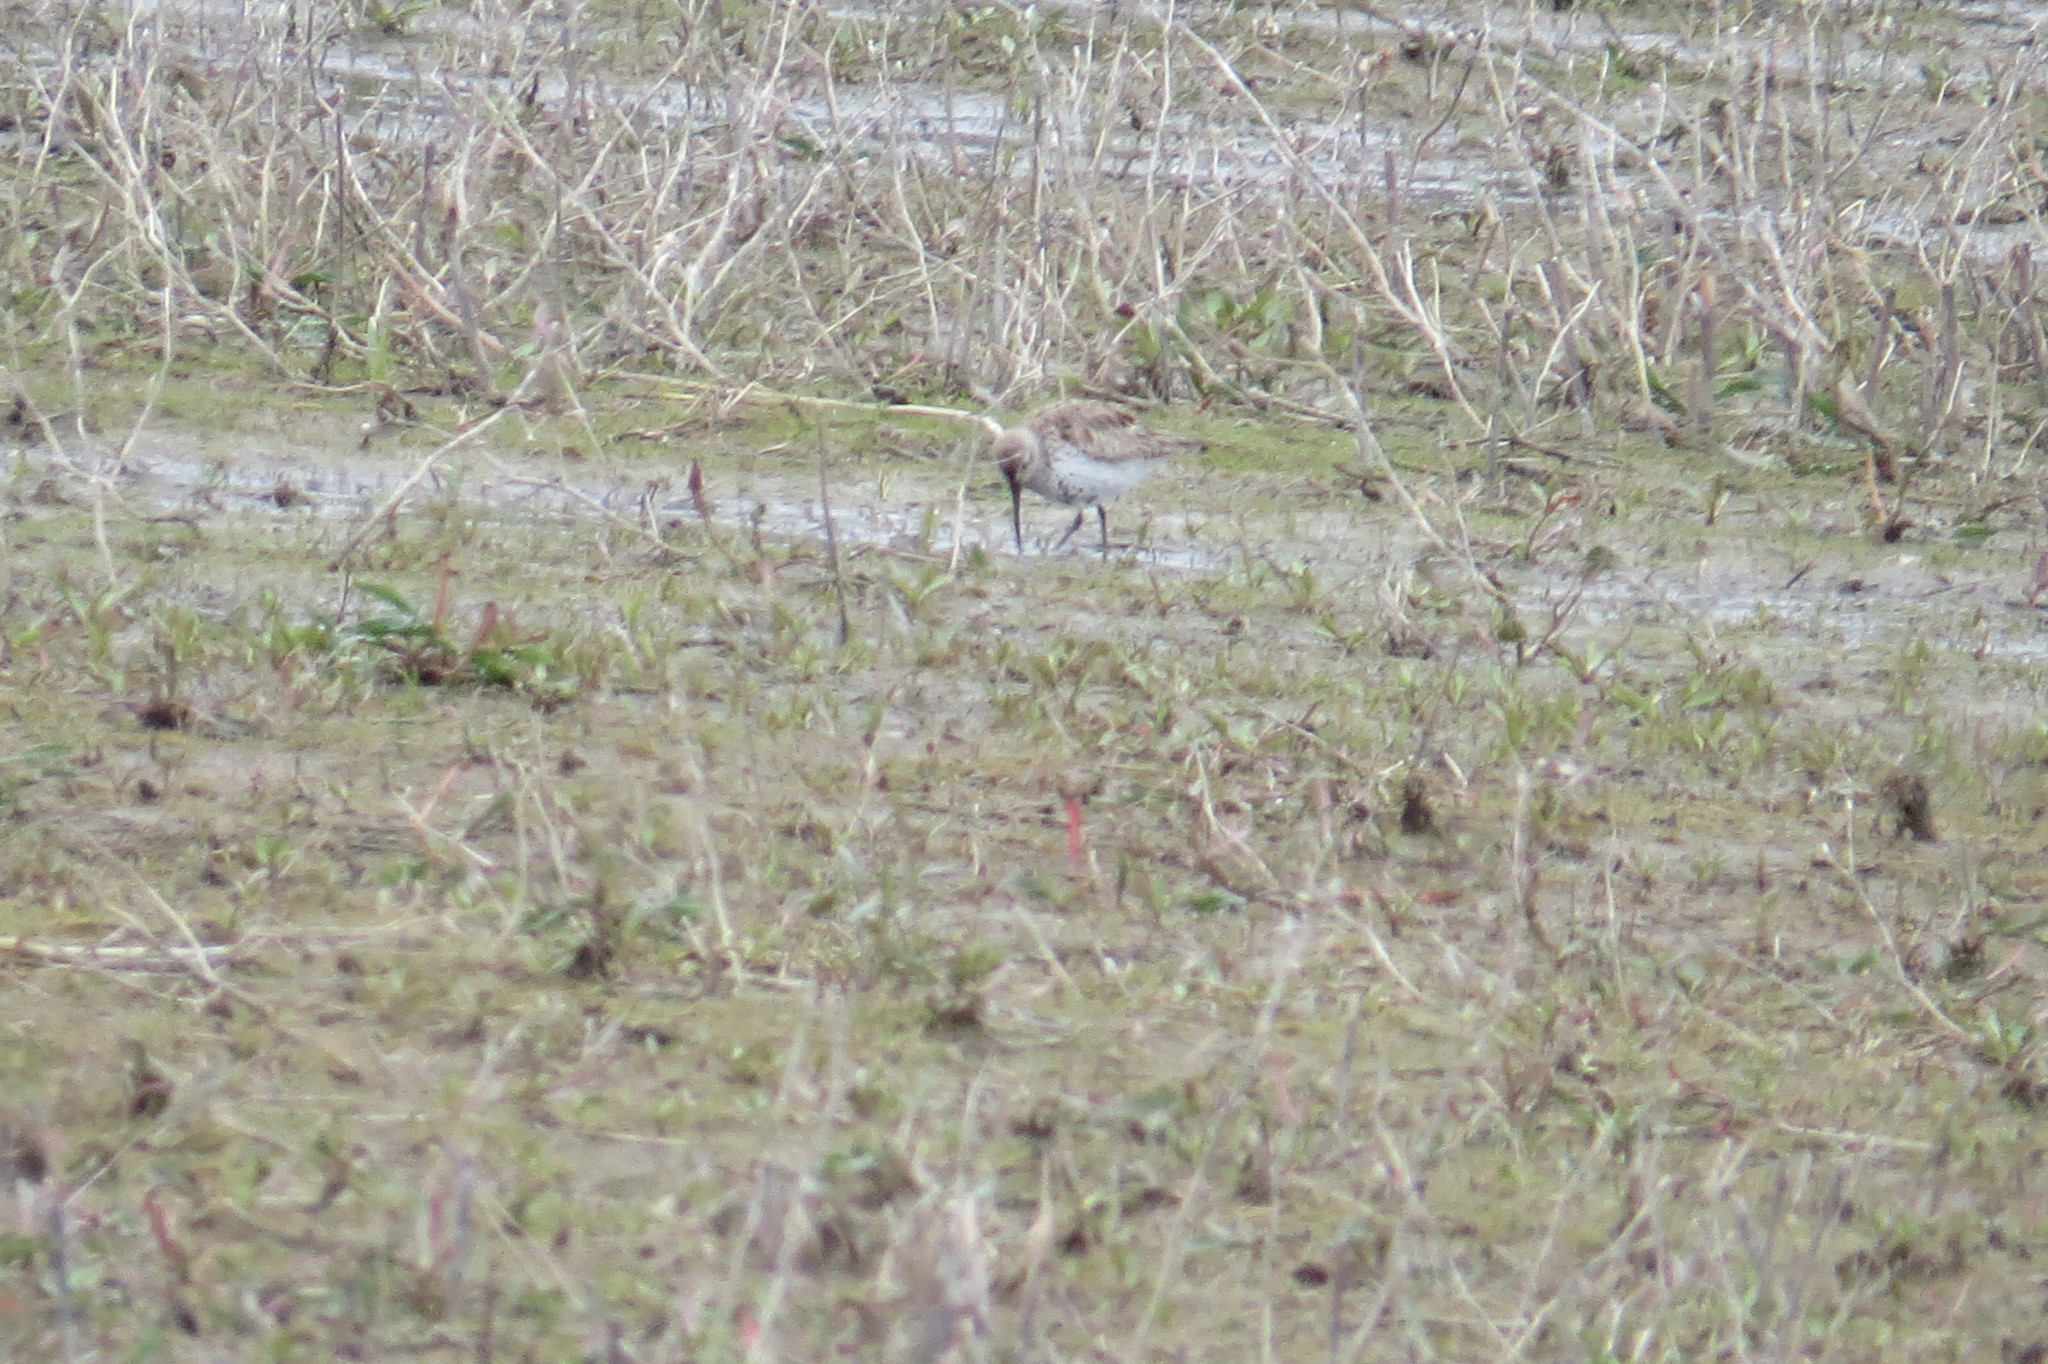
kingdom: Animalia
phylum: Chordata
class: Aves
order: Charadriiformes
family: Scolopacidae
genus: Calidris
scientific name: Calidris alpina
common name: Dunlin
